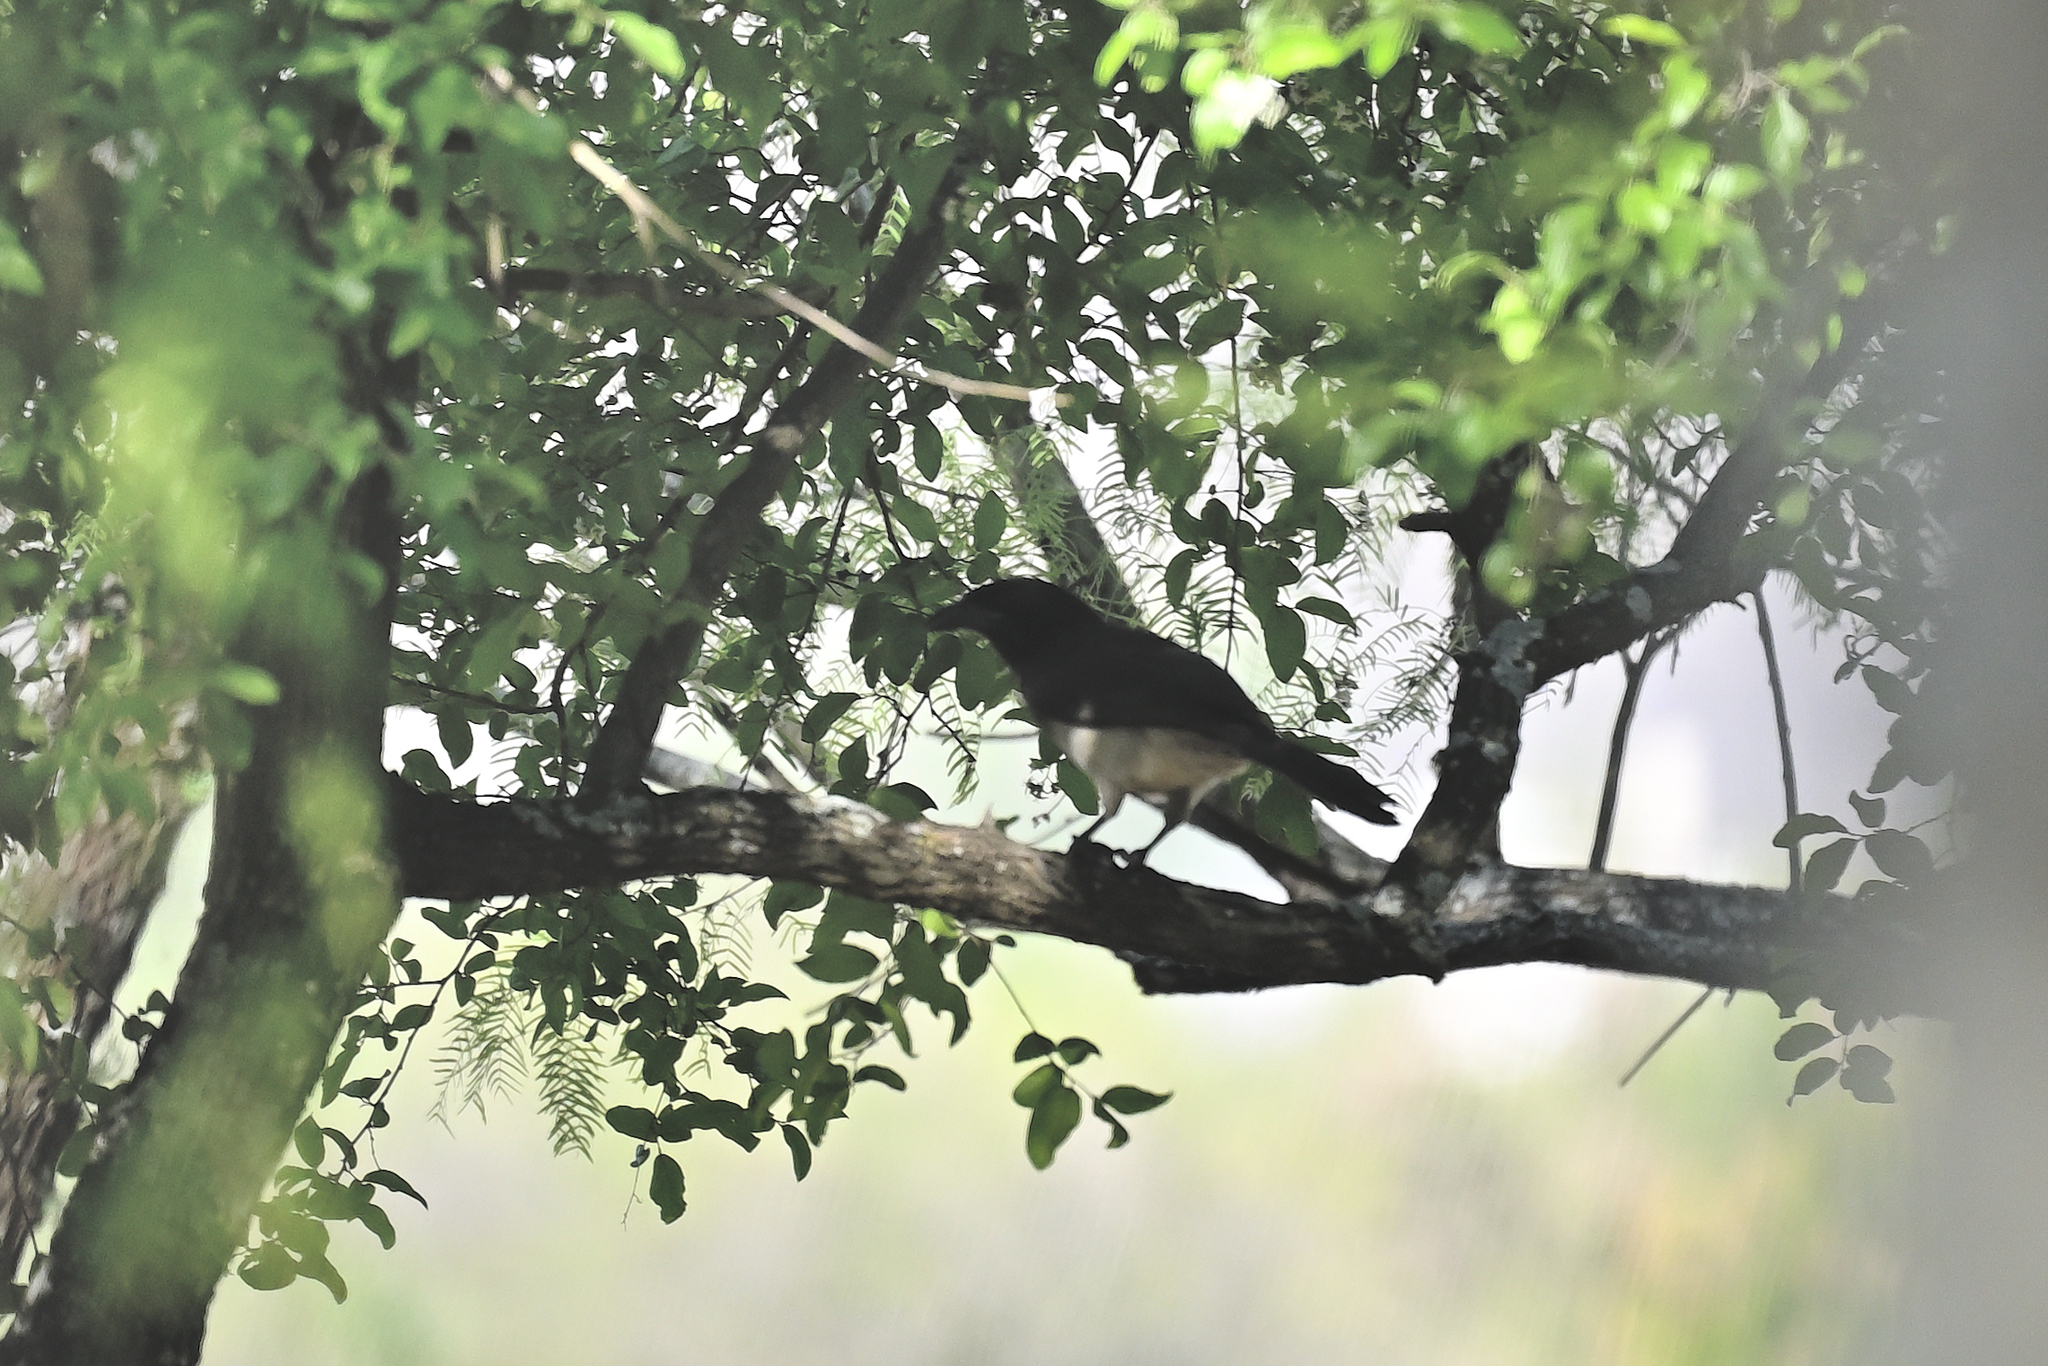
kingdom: Animalia
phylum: Chordata
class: Aves
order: Passeriformes
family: Corvidae
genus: Psilorhinus
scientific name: Psilorhinus morio
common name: Brown jay
